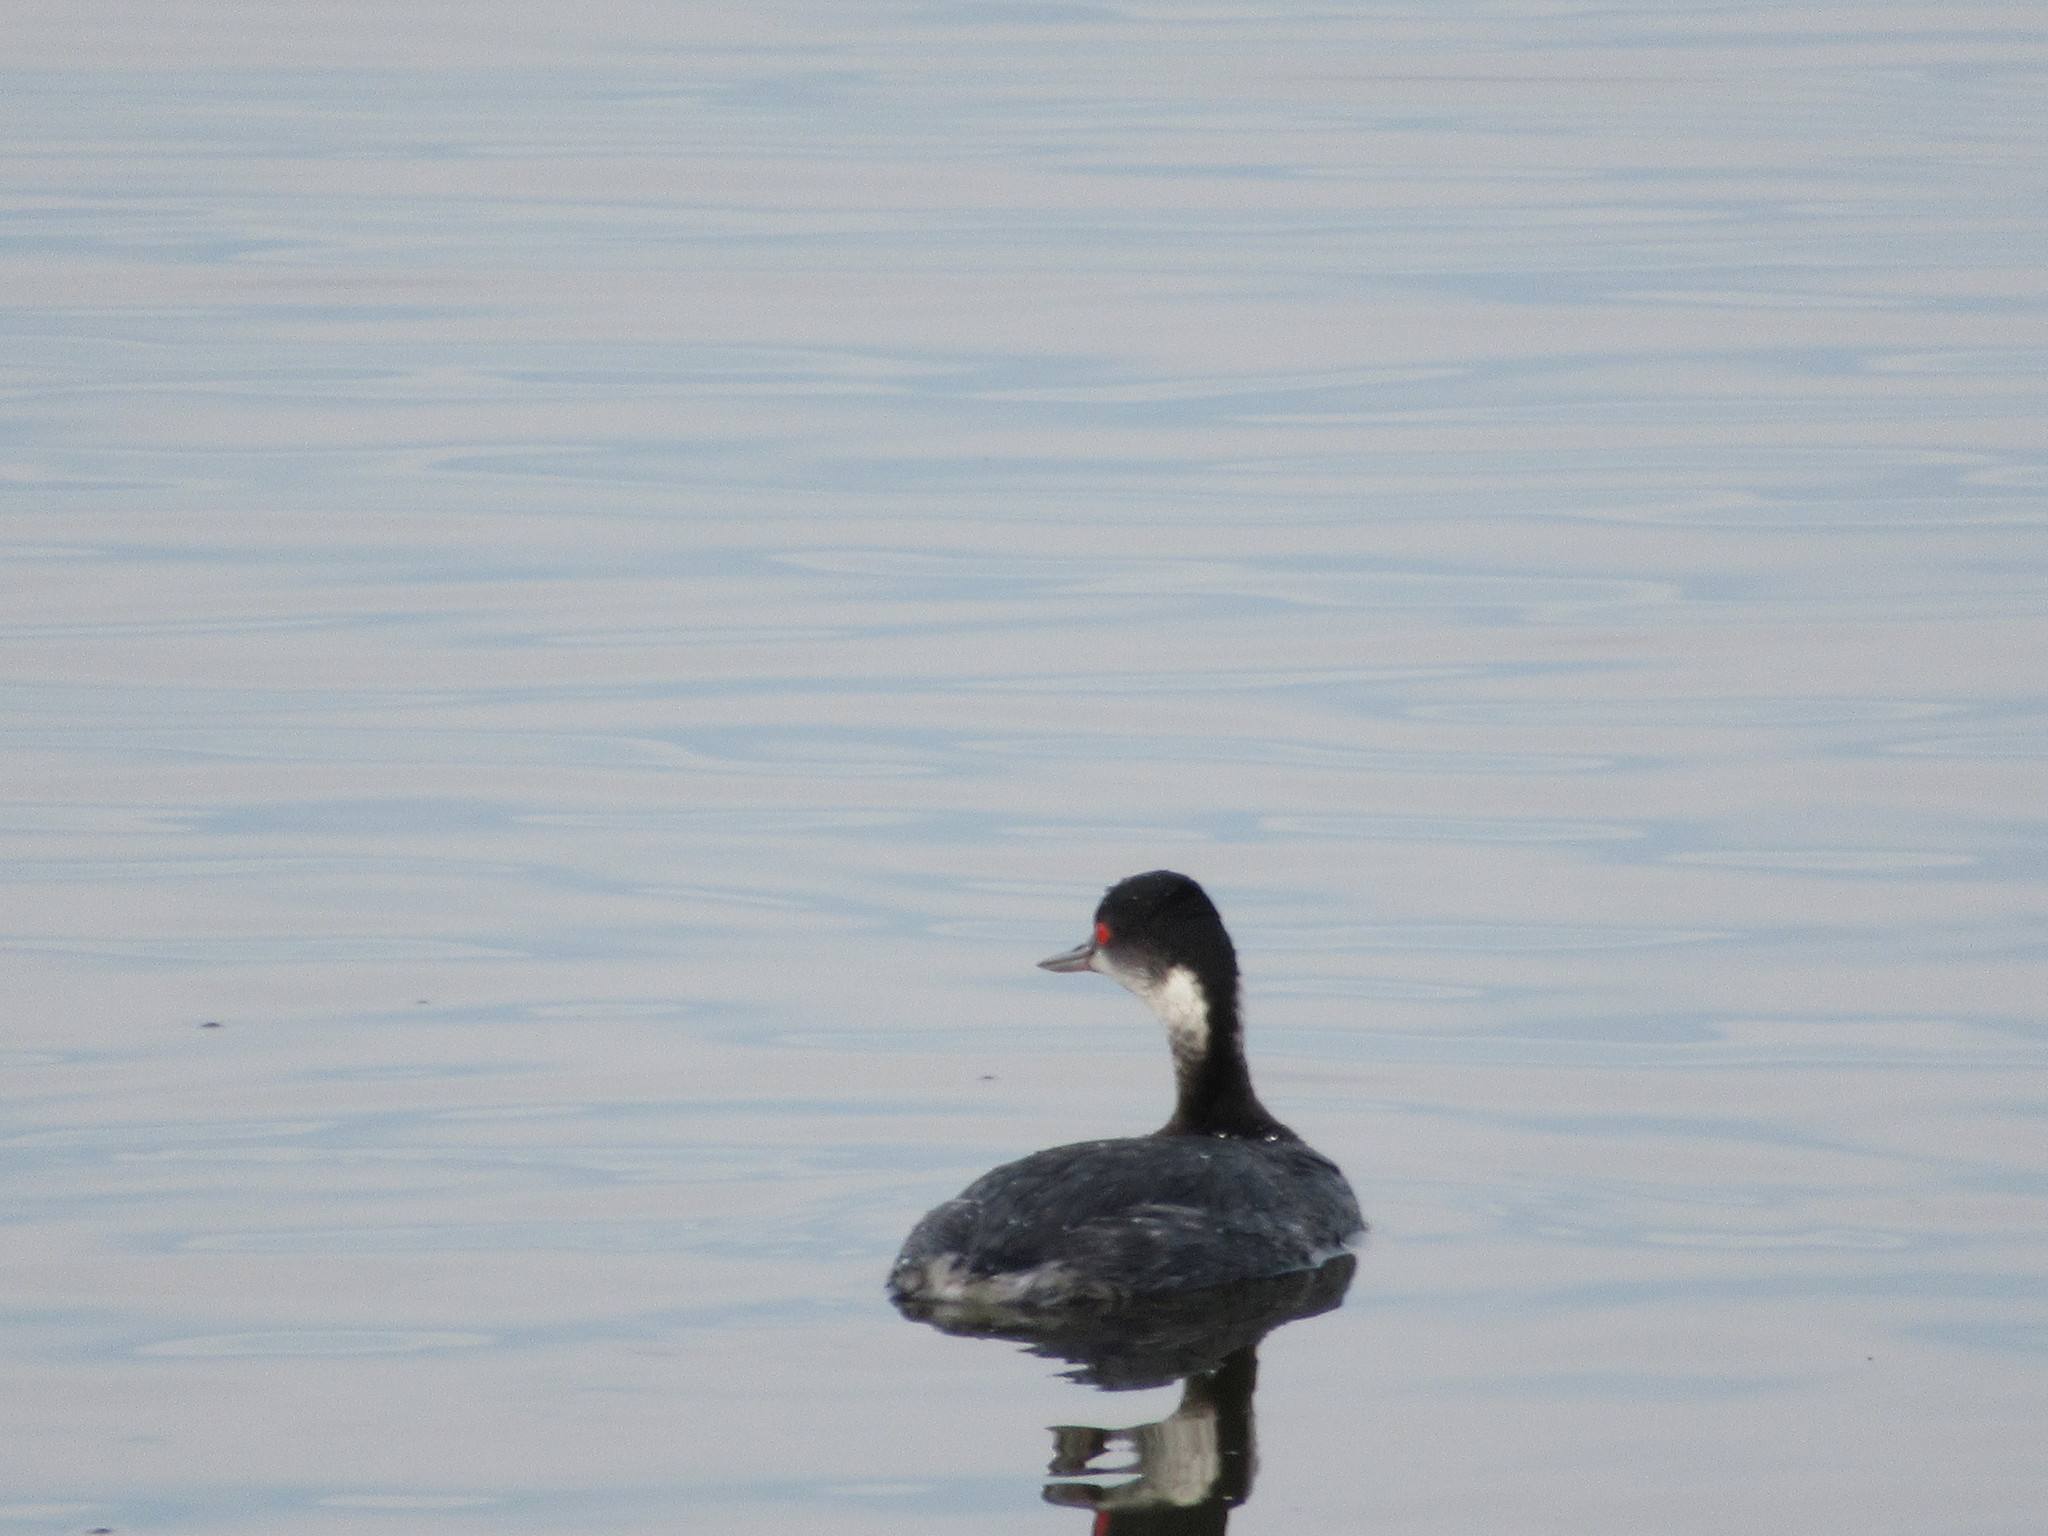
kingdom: Animalia
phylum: Chordata
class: Aves
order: Podicipediformes
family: Podicipedidae
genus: Podiceps
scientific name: Podiceps nigricollis
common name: Black-necked grebe
